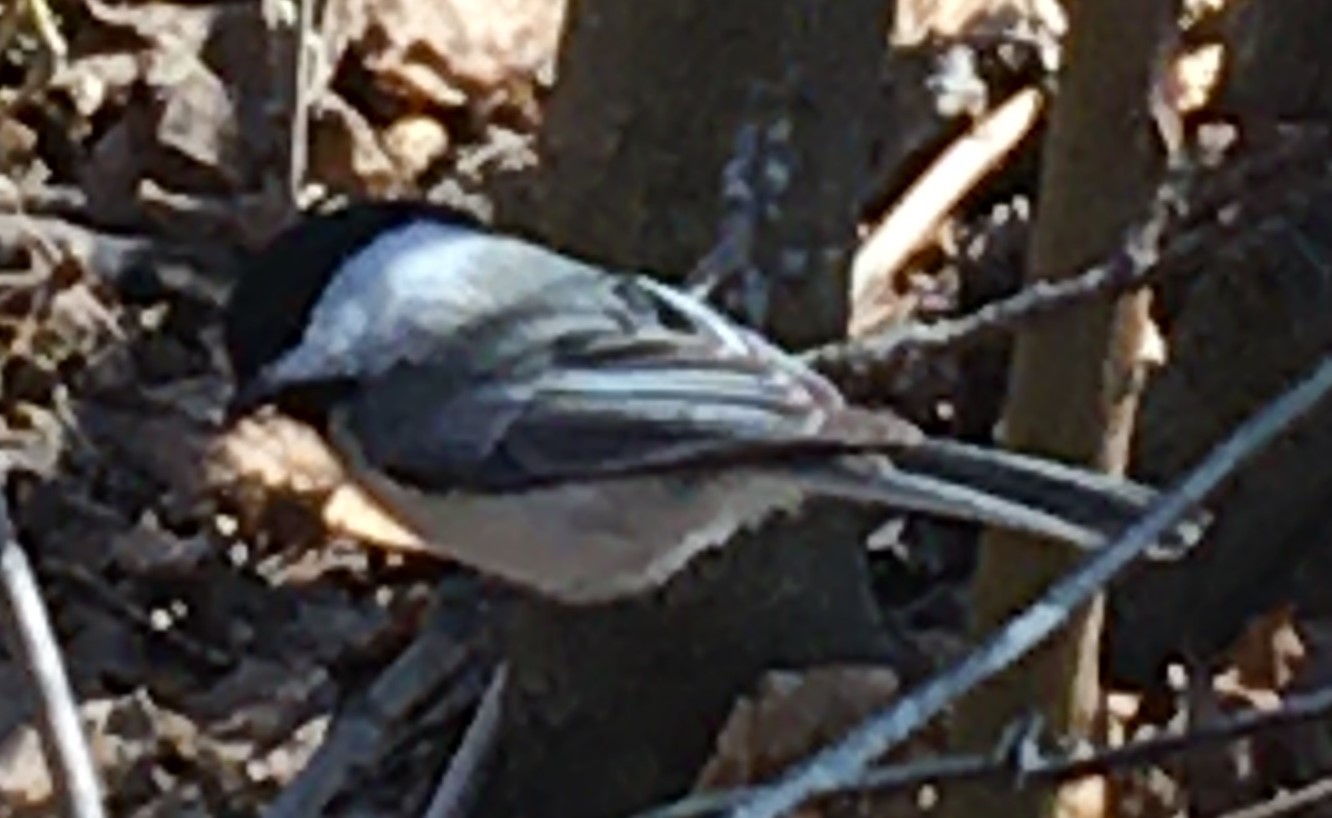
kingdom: Animalia
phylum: Chordata
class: Aves
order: Passeriformes
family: Paridae
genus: Poecile
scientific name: Poecile atricapillus
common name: Black-capped chickadee
